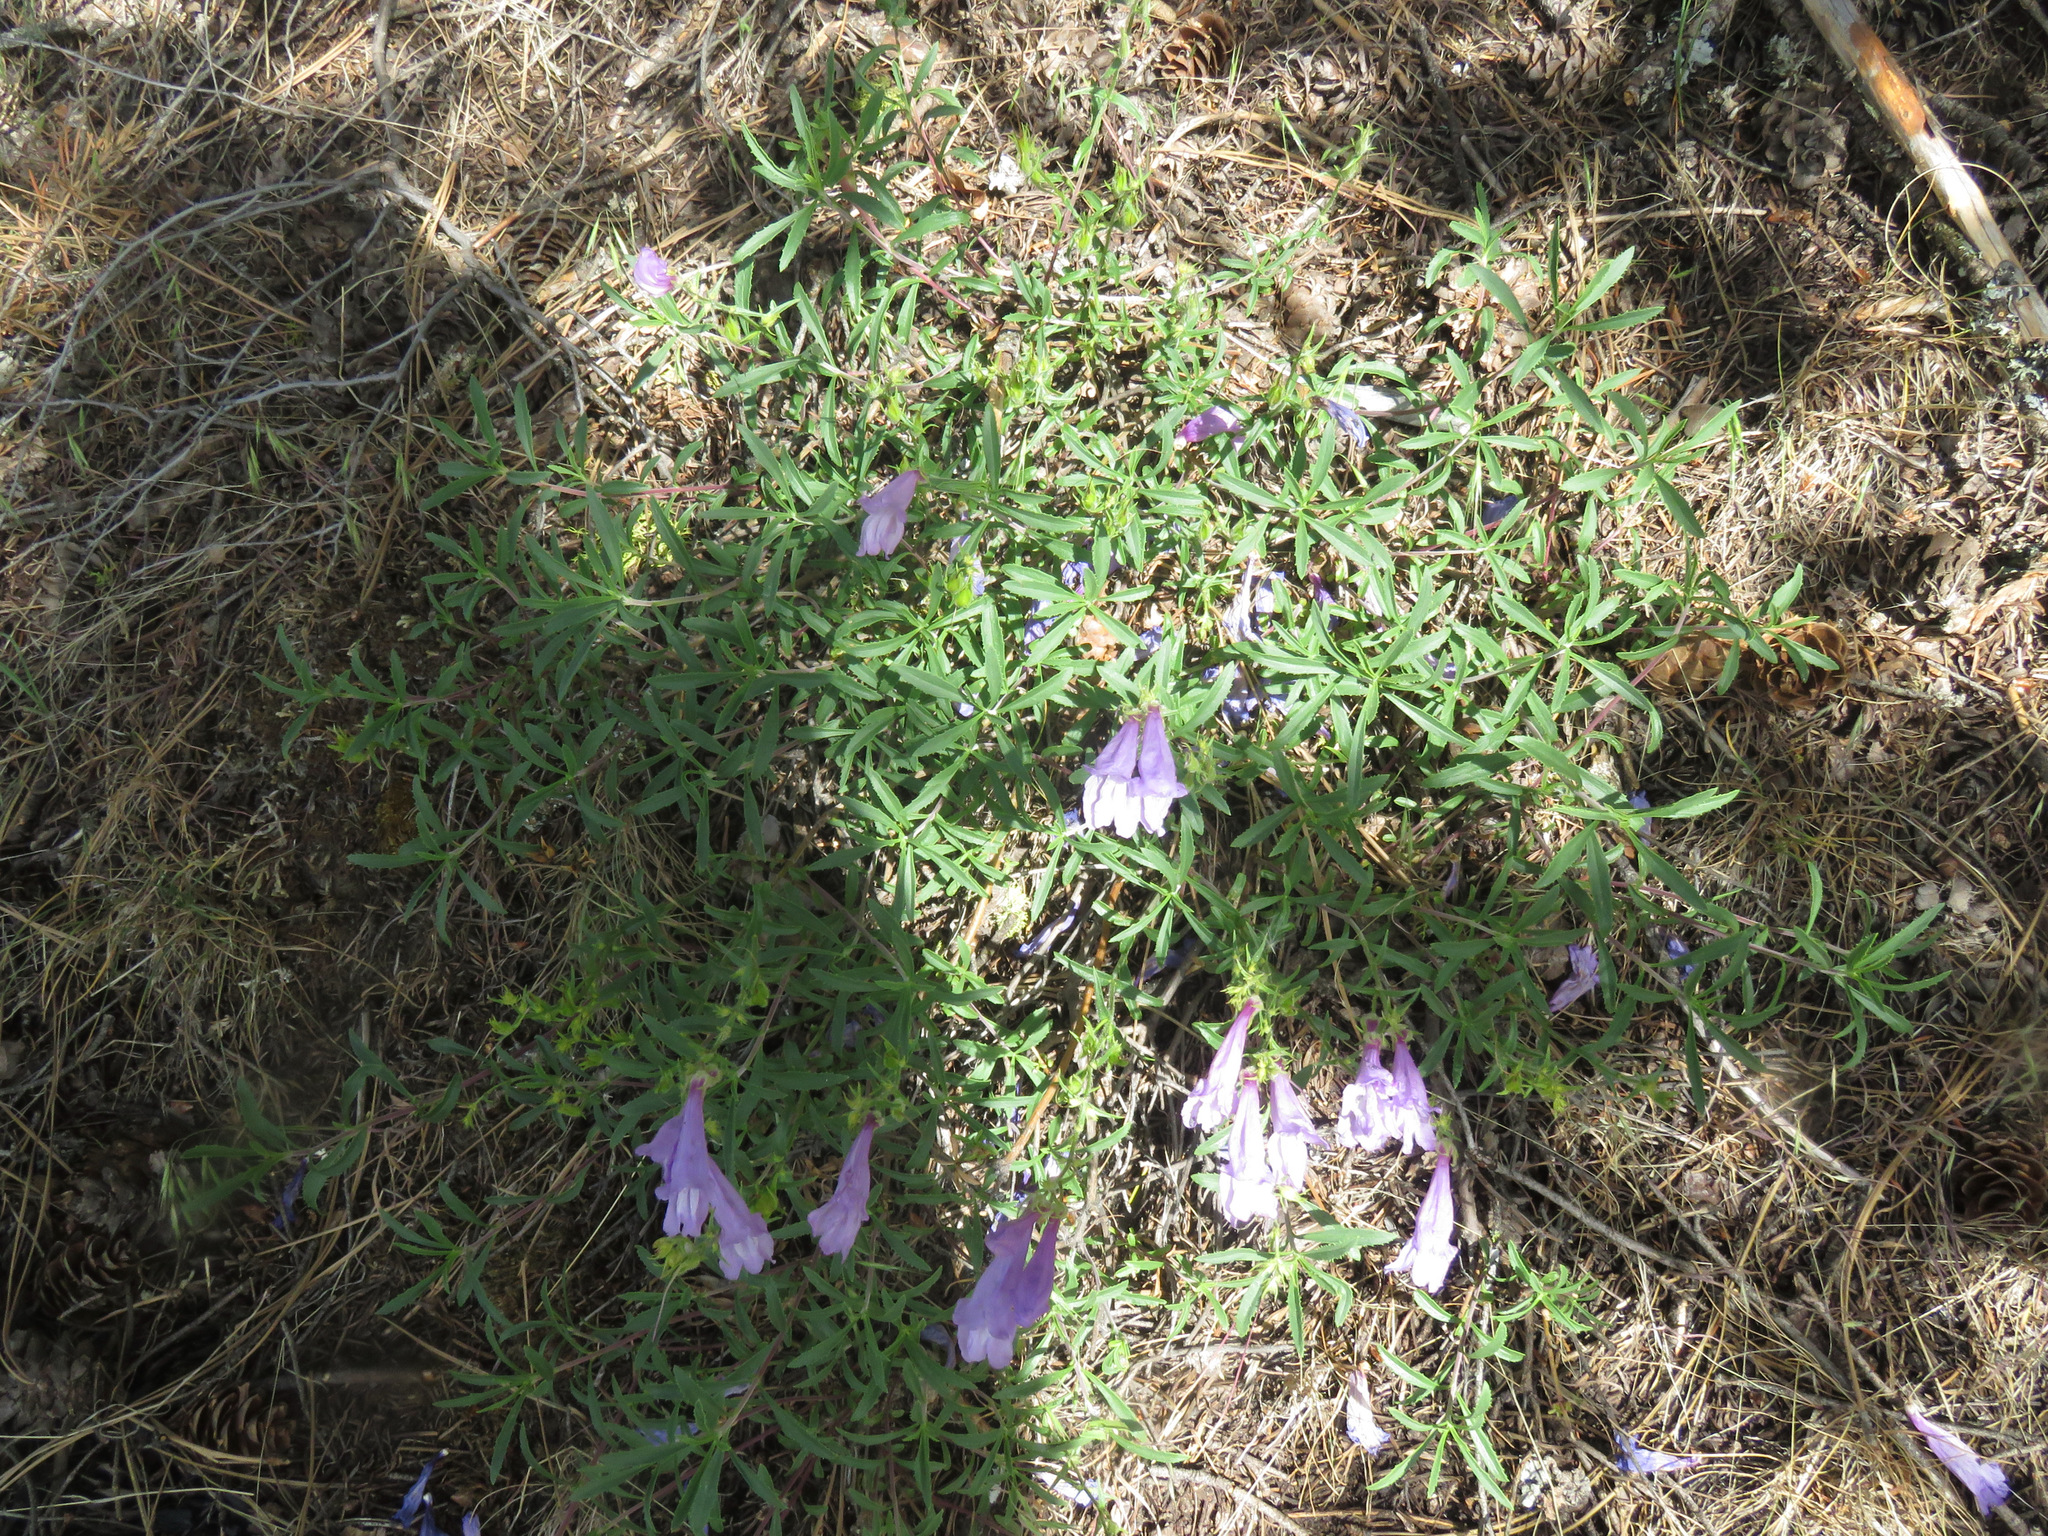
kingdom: Plantae
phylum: Tracheophyta
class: Magnoliopsida
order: Lamiales
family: Plantaginaceae
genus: Penstemon
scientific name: Penstemon fruticosus
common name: Bush penstemon
